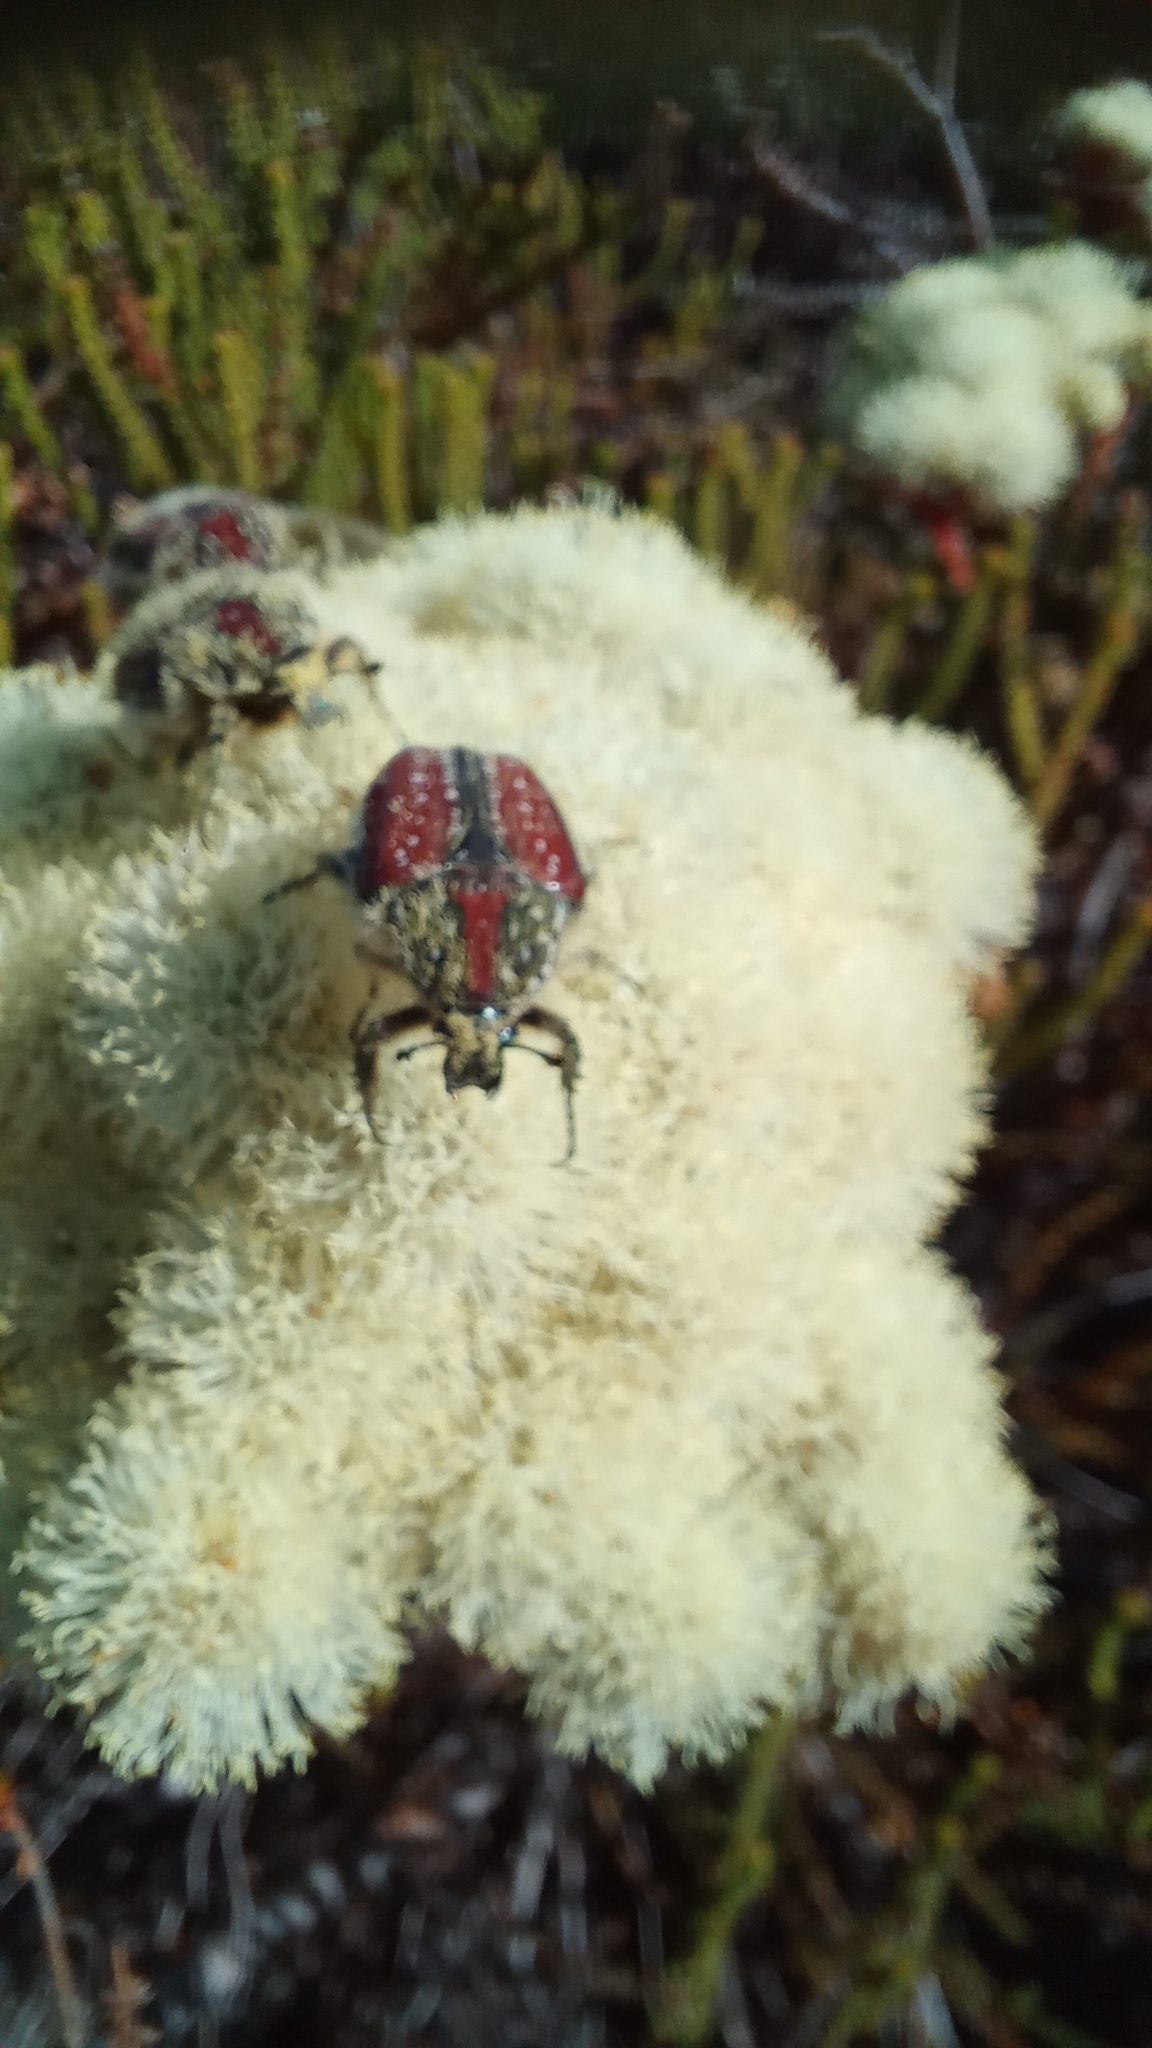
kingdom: Animalia
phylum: Arthropoda
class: Insecta
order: Coleoptera
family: Scarabaeidae
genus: Trichostetha
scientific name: Trichostetha capensis
